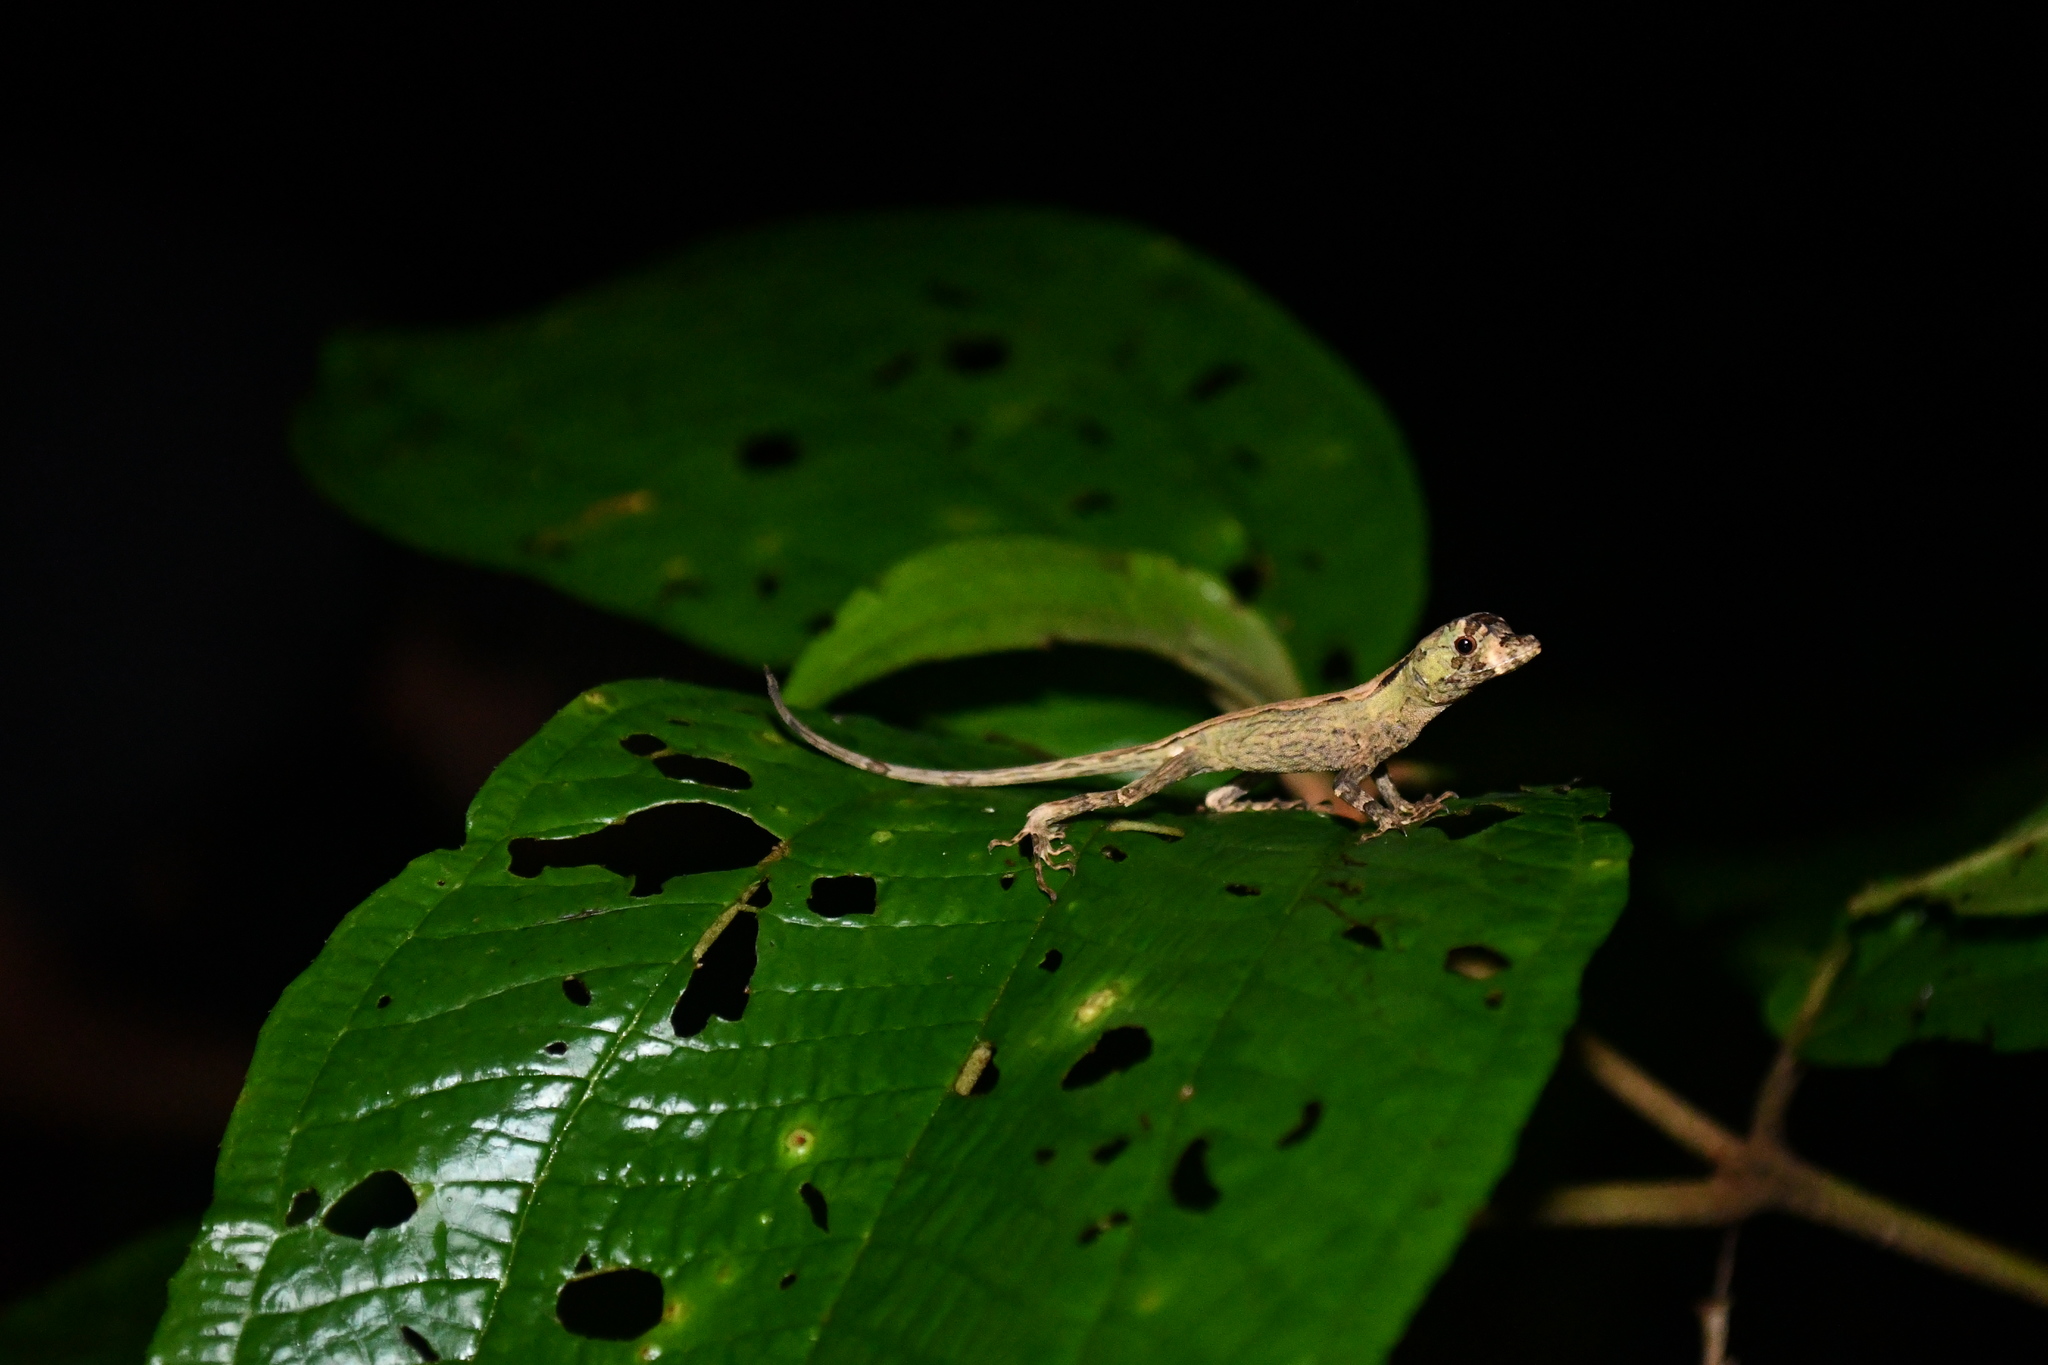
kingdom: Animalia
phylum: Chordata
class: Squamata
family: Dactyloidae
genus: Anolis
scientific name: Anolis capito
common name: Bighead anole
